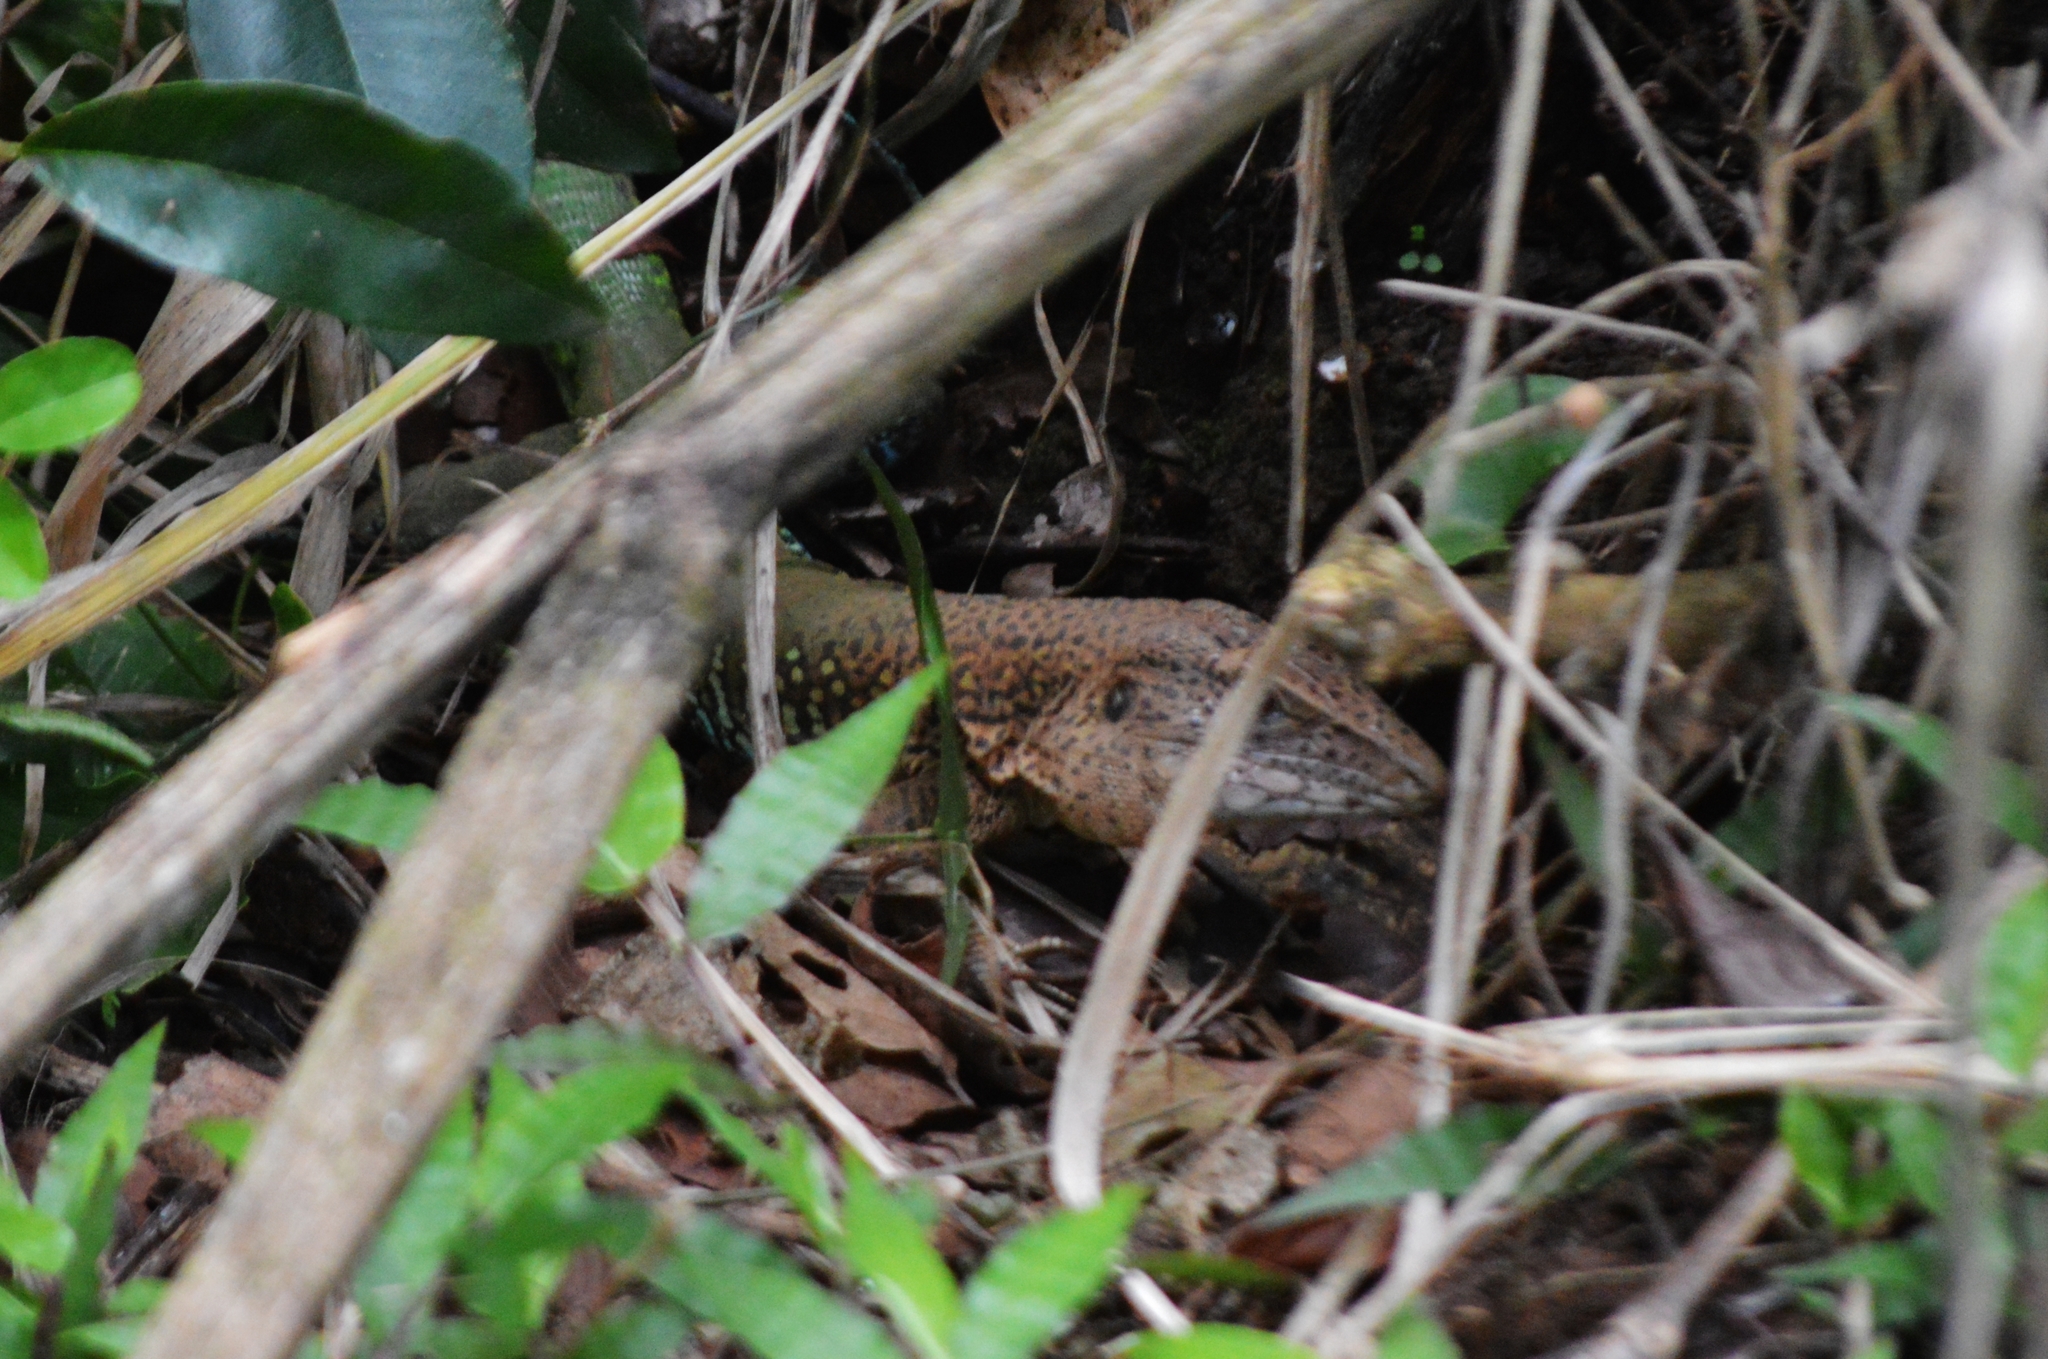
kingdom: Animalia
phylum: Chordata
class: Squamata
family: Teiidae
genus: Ameiva
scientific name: Ameiva ameiva
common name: Giant ameiva
